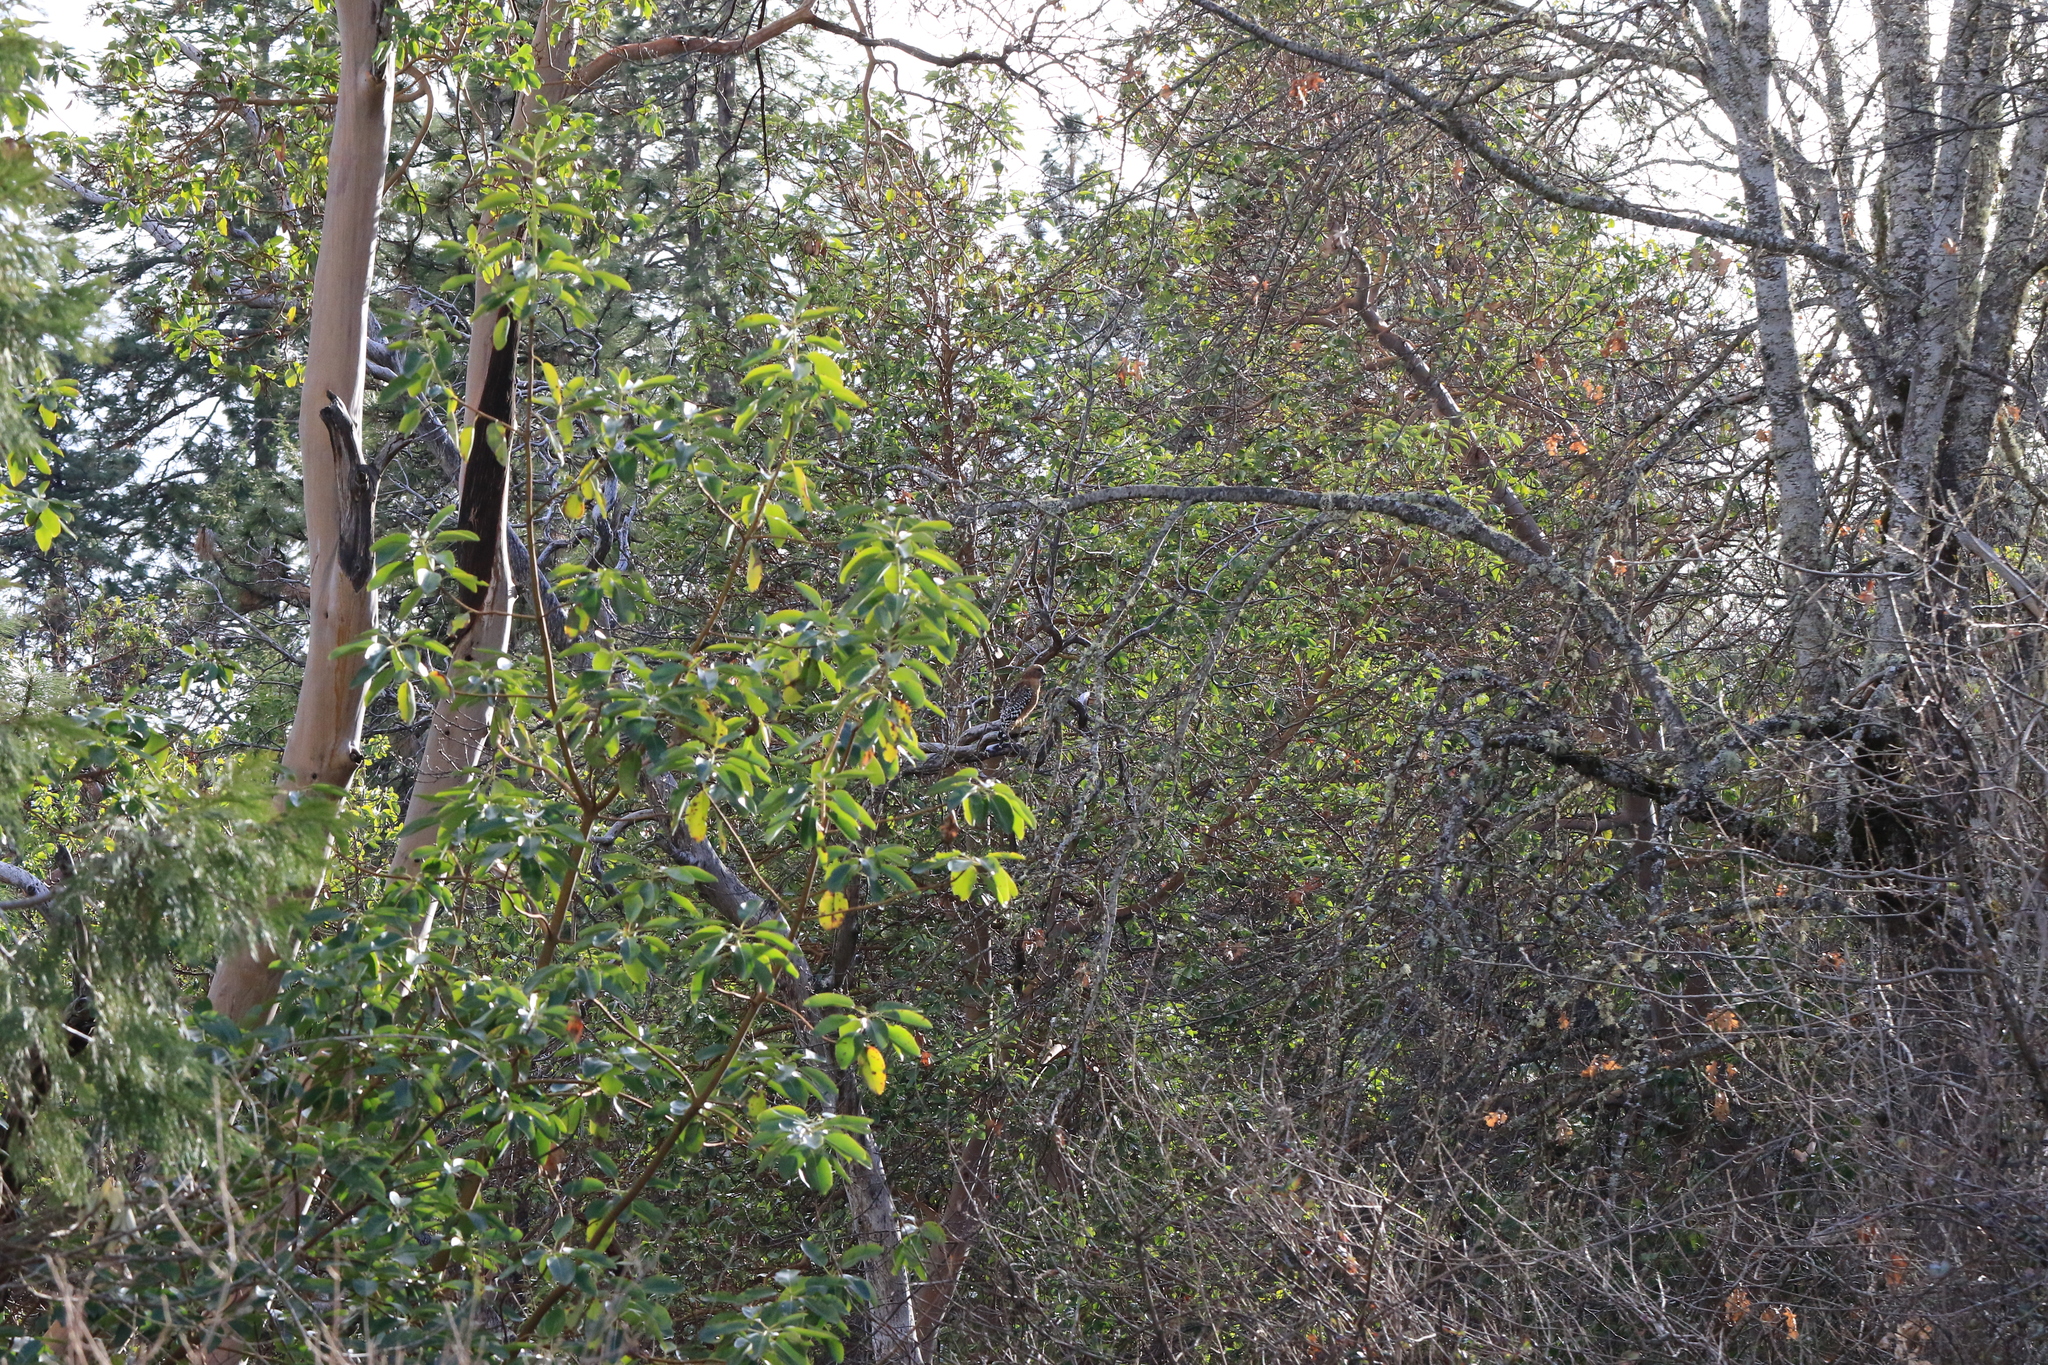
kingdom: Animalia
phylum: Chordata
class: Aves
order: Accipitriformes
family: Accipitridae
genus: Buteo
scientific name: Buteo lineatus
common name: Red-shouldered hawk
